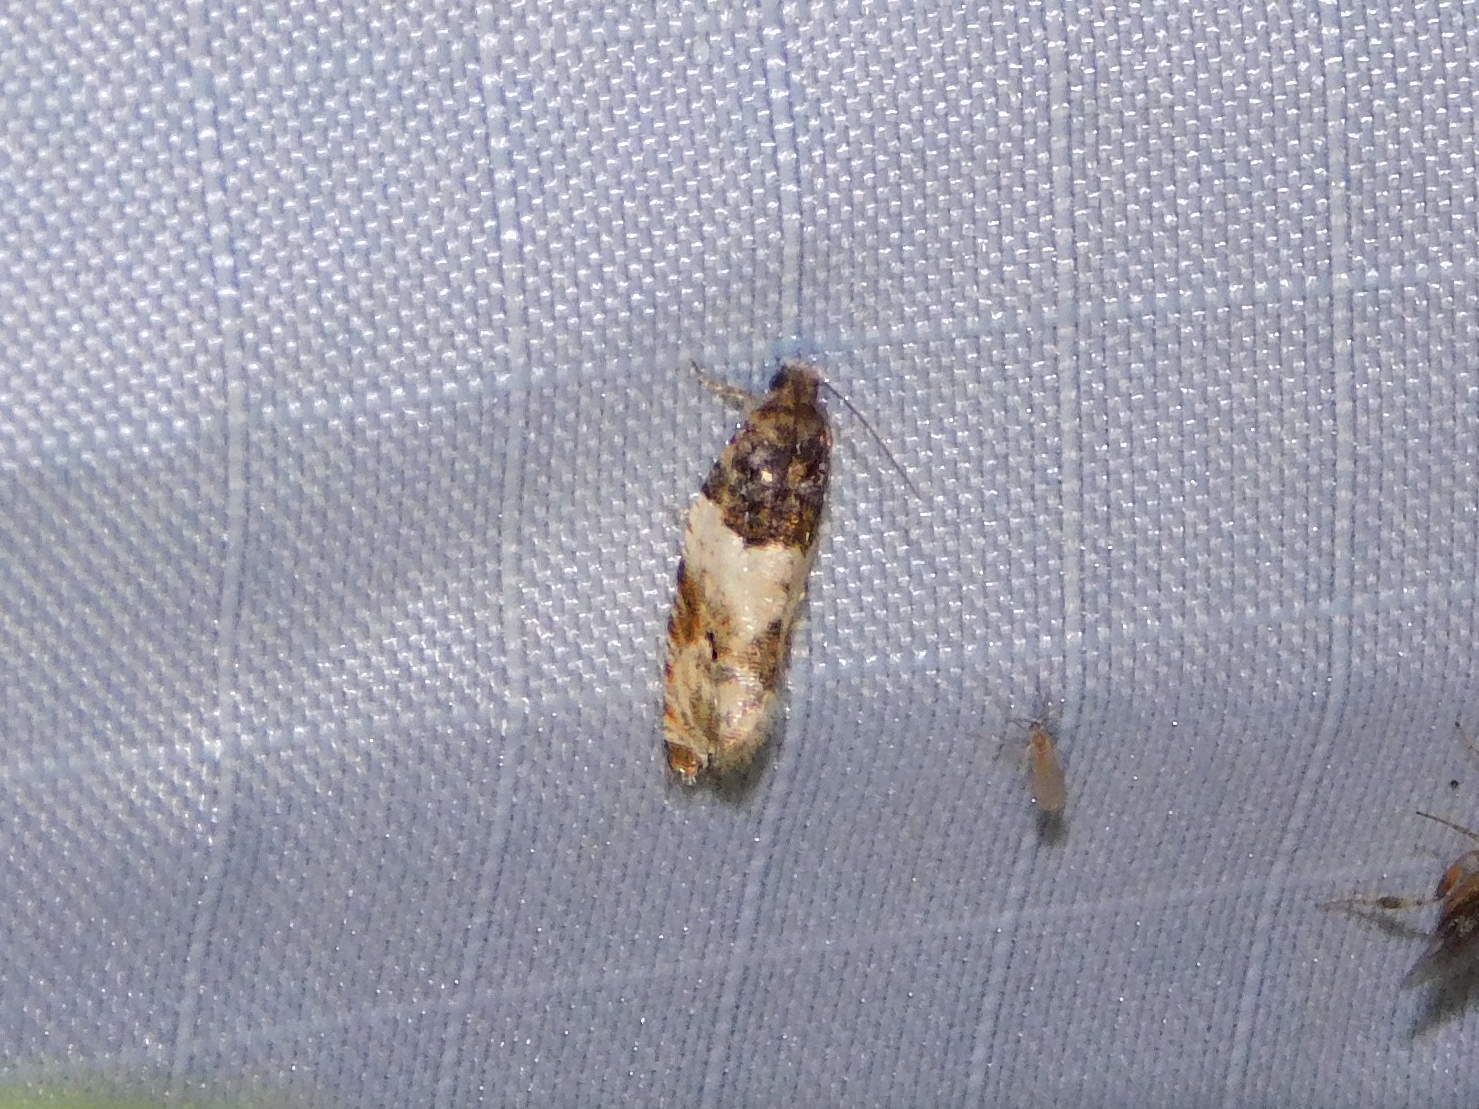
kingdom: Animalia
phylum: Arthropoda
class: Insecta
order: Lepidoptera
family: Tortricidae
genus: Gypsonoma
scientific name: Gypsonoma dealbana
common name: Common cloaked shoot
